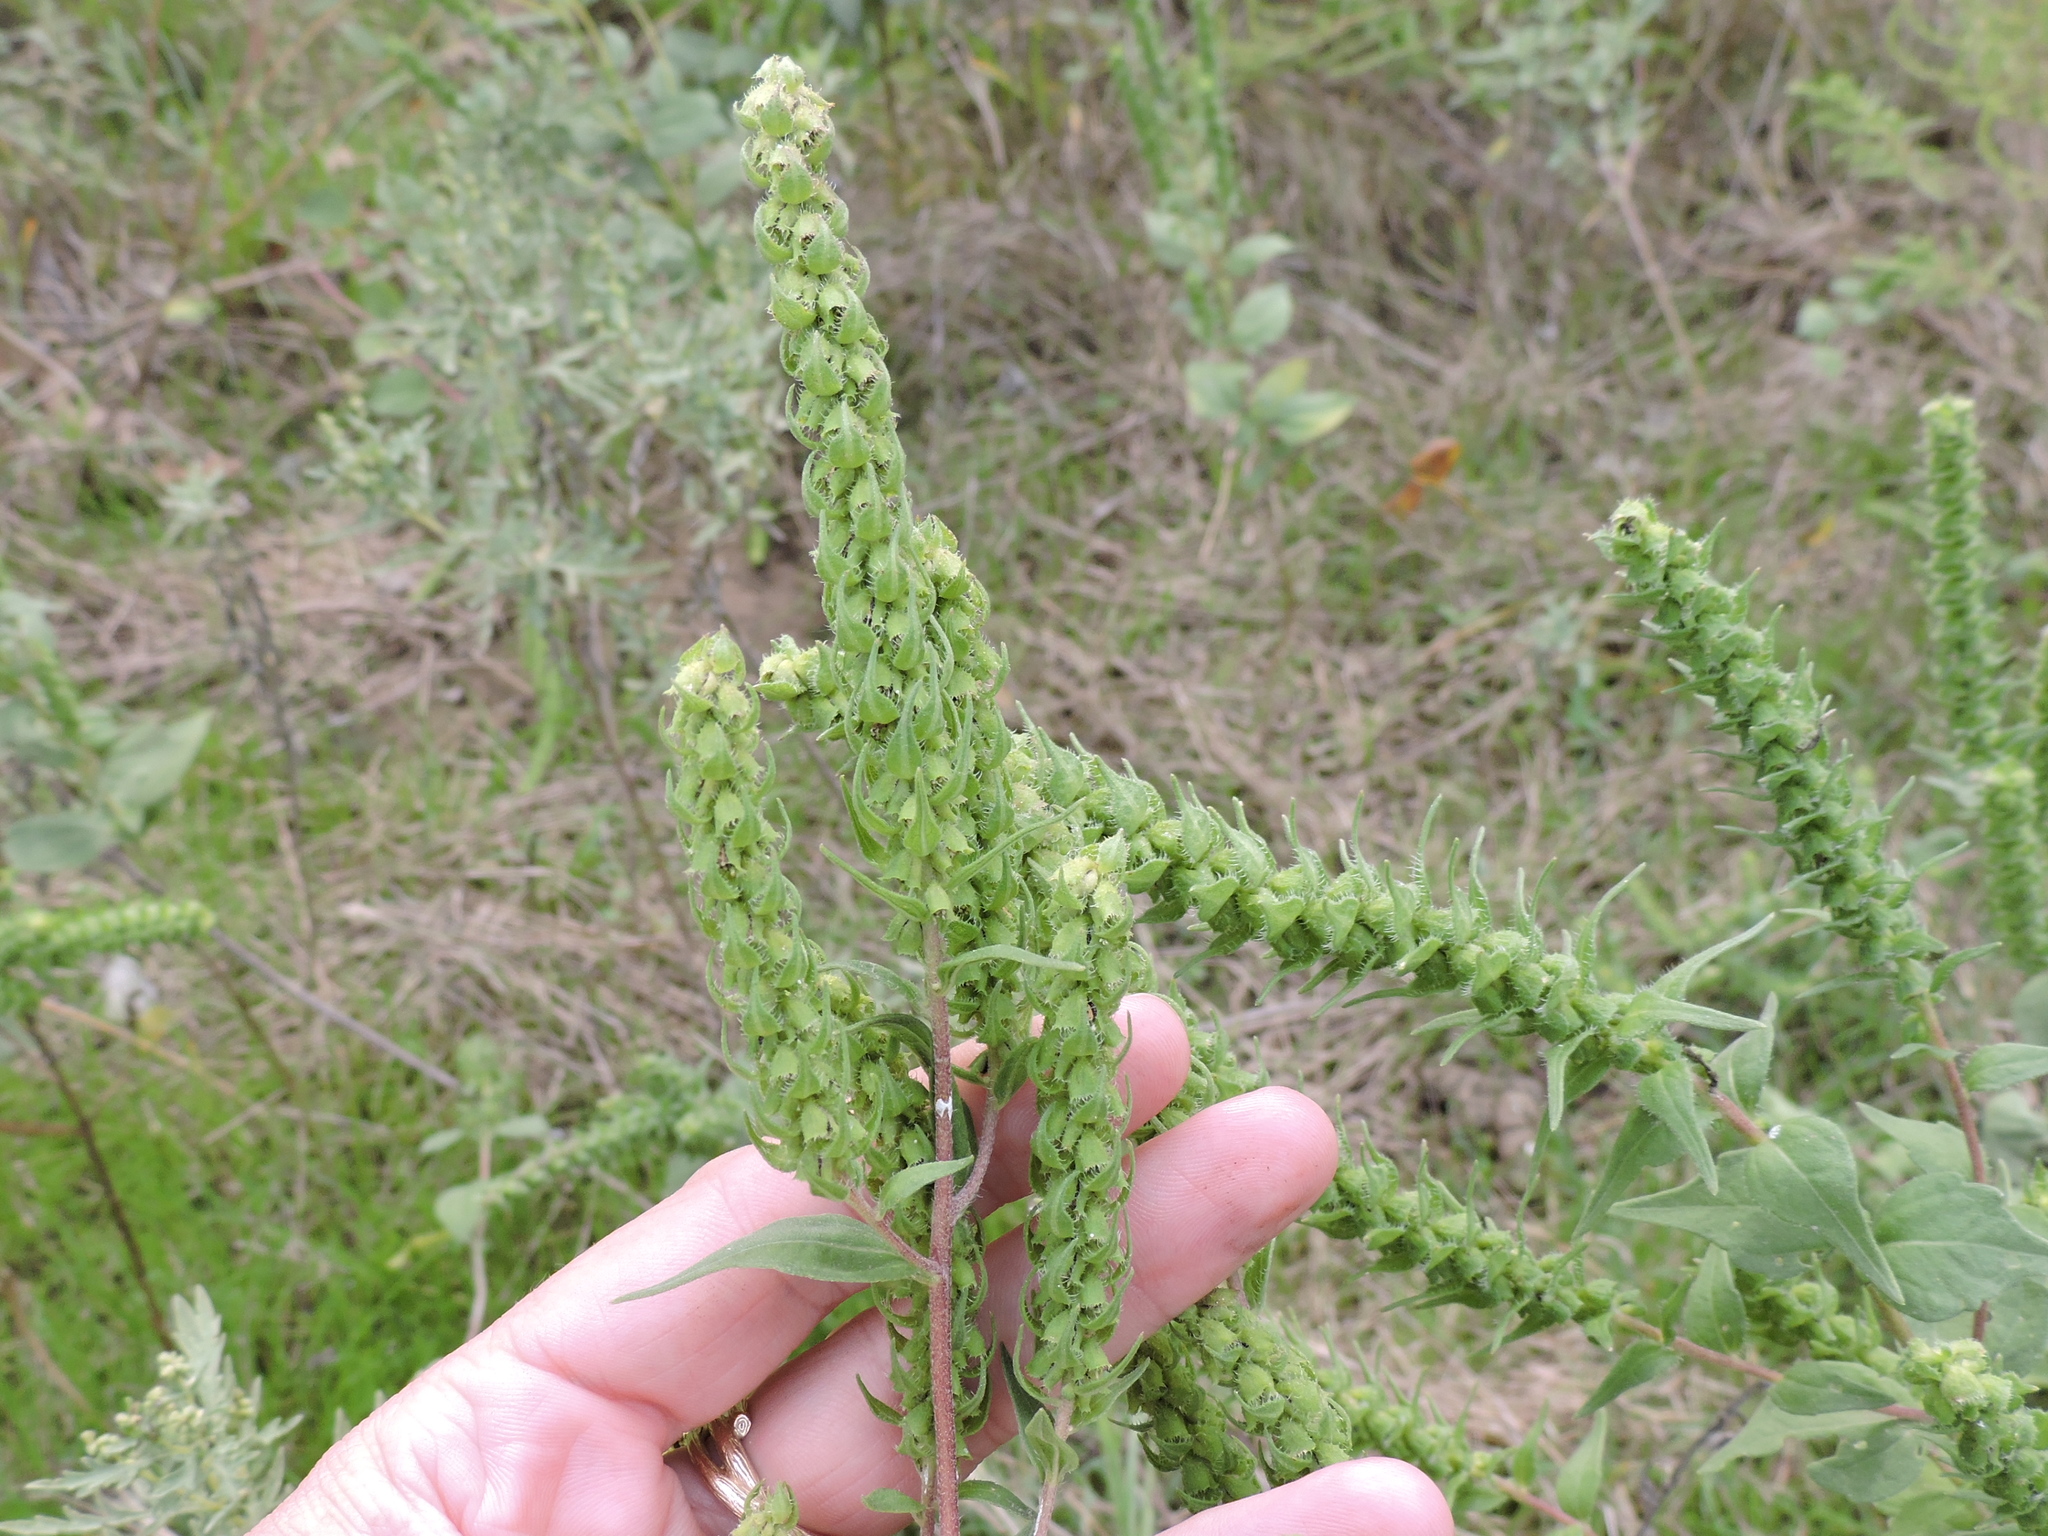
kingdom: Plantae
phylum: Tracheophyta
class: Magnoliopsida
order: Asterales
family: Asteraceae
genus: Iva
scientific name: Iva annua
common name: Marsh-elder
